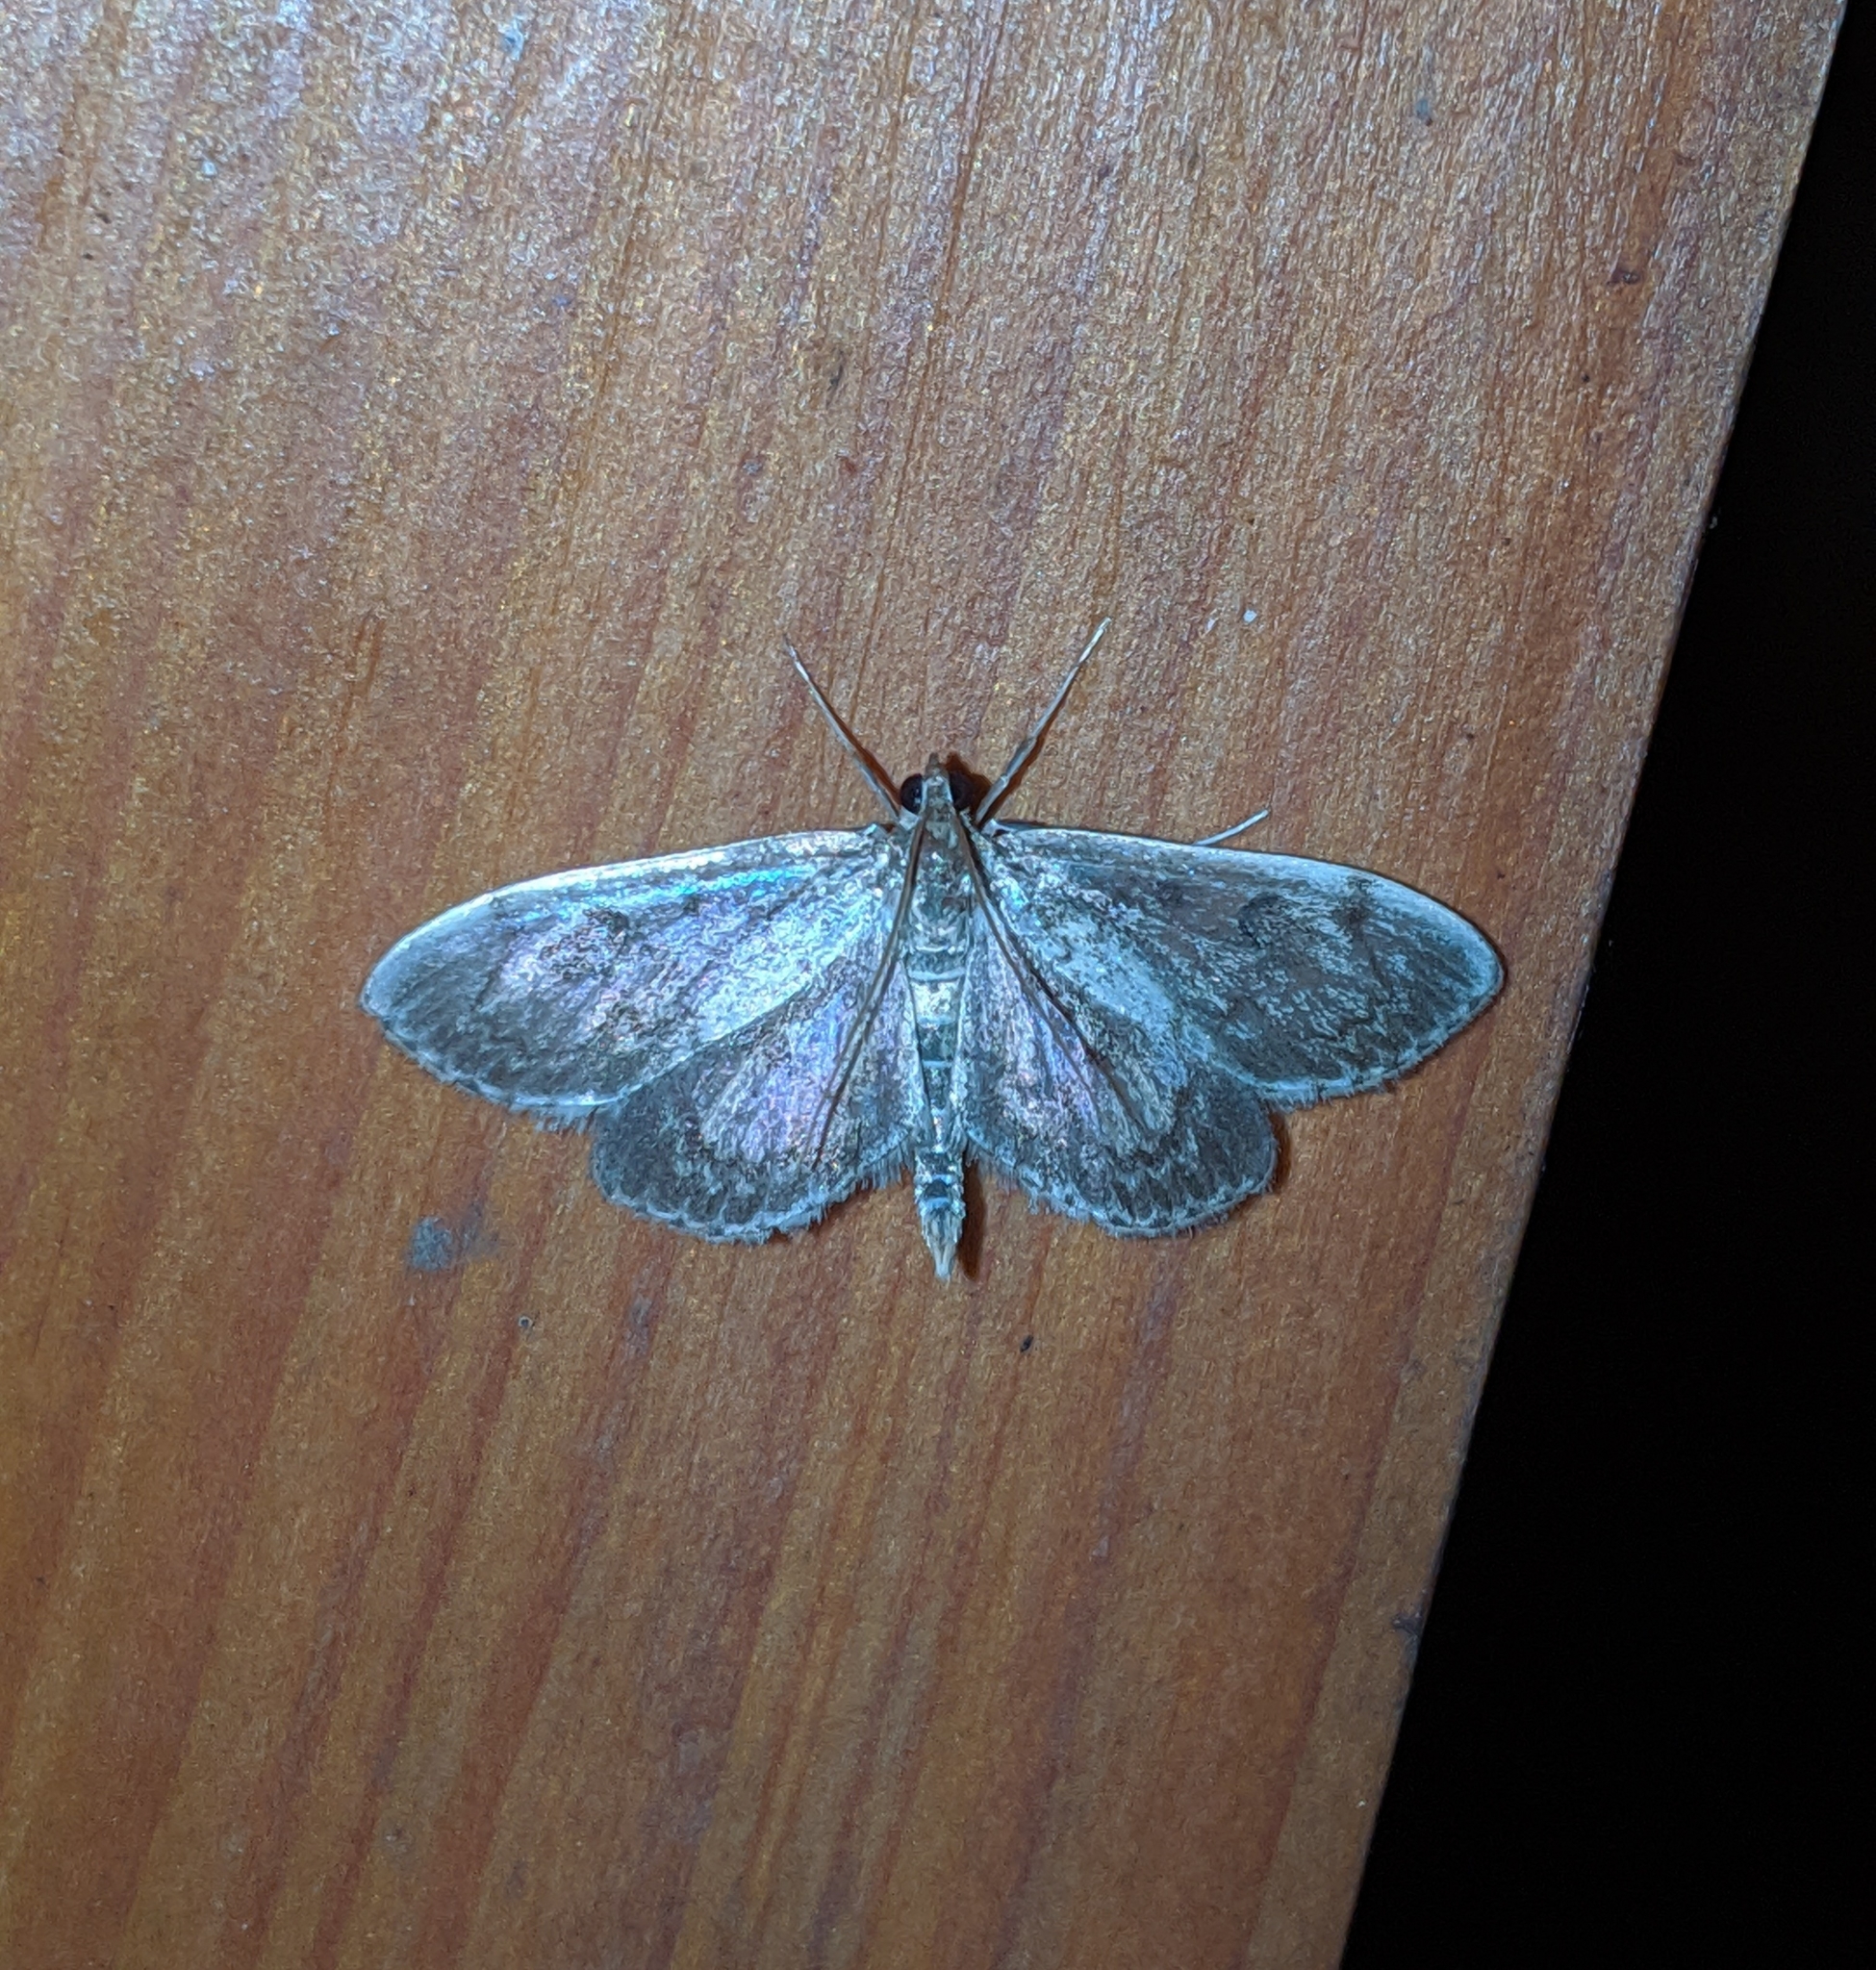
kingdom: Animalia
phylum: Arthropoda
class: Insecta
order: Lepidoptera
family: Crambidae
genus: Herpetogramma
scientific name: Herpetogramma aquilonalis
